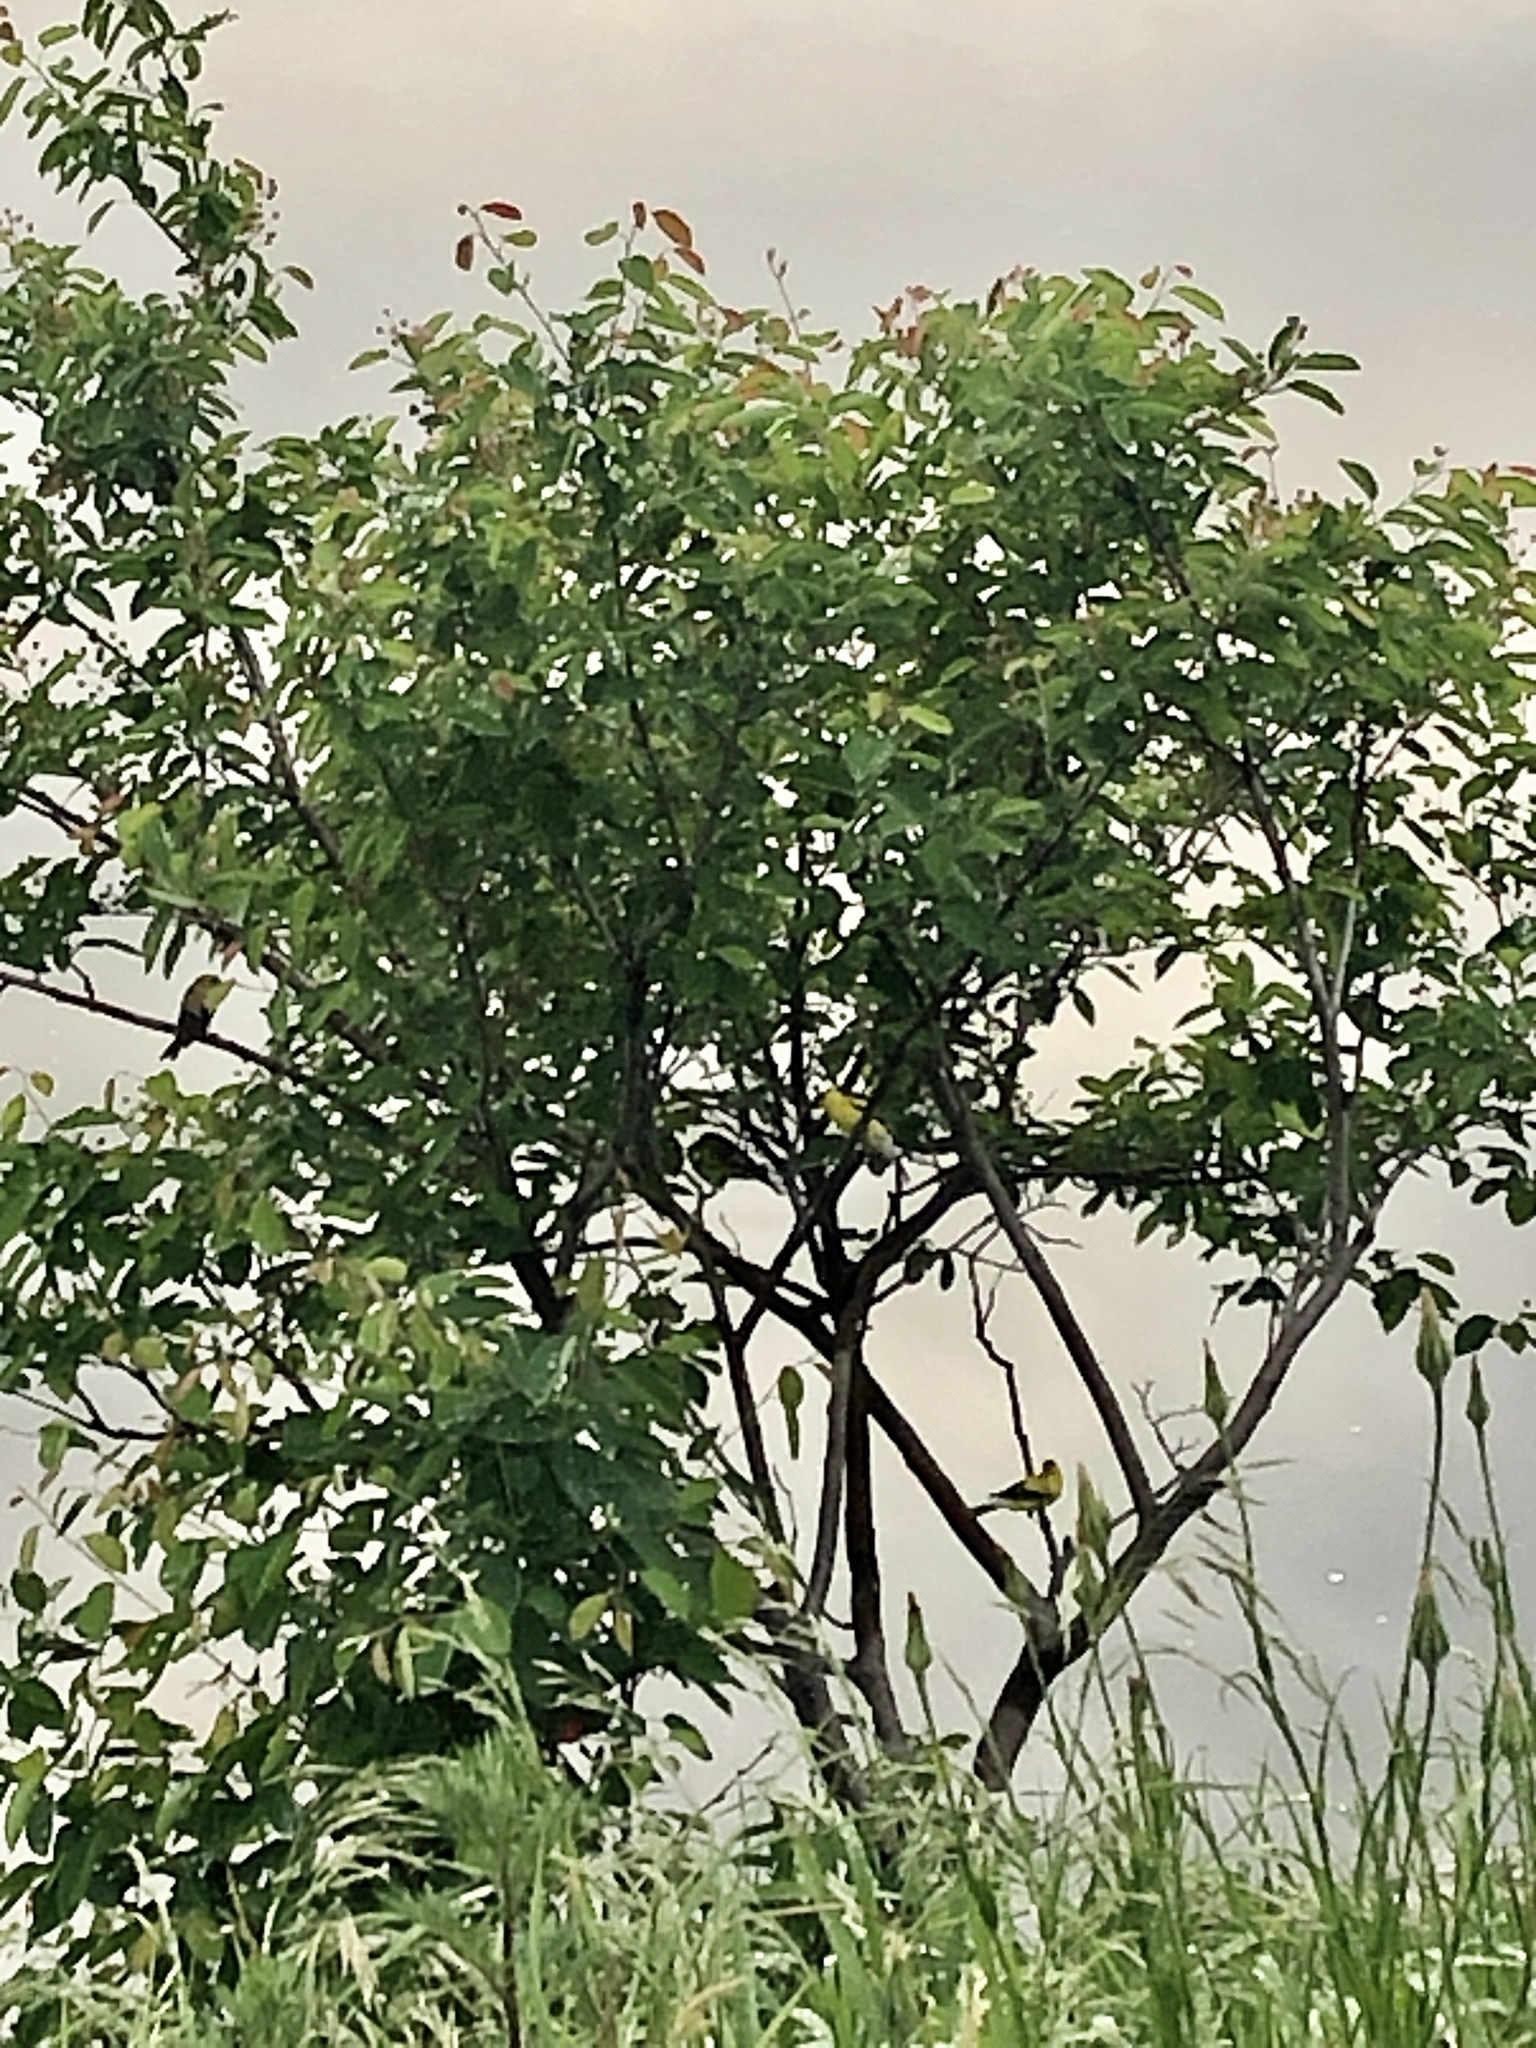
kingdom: Animalia
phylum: Chordata
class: Aves
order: Passeriformes
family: Fringillidae
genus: Spinus
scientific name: Spinus tristis
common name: American goldfinch
